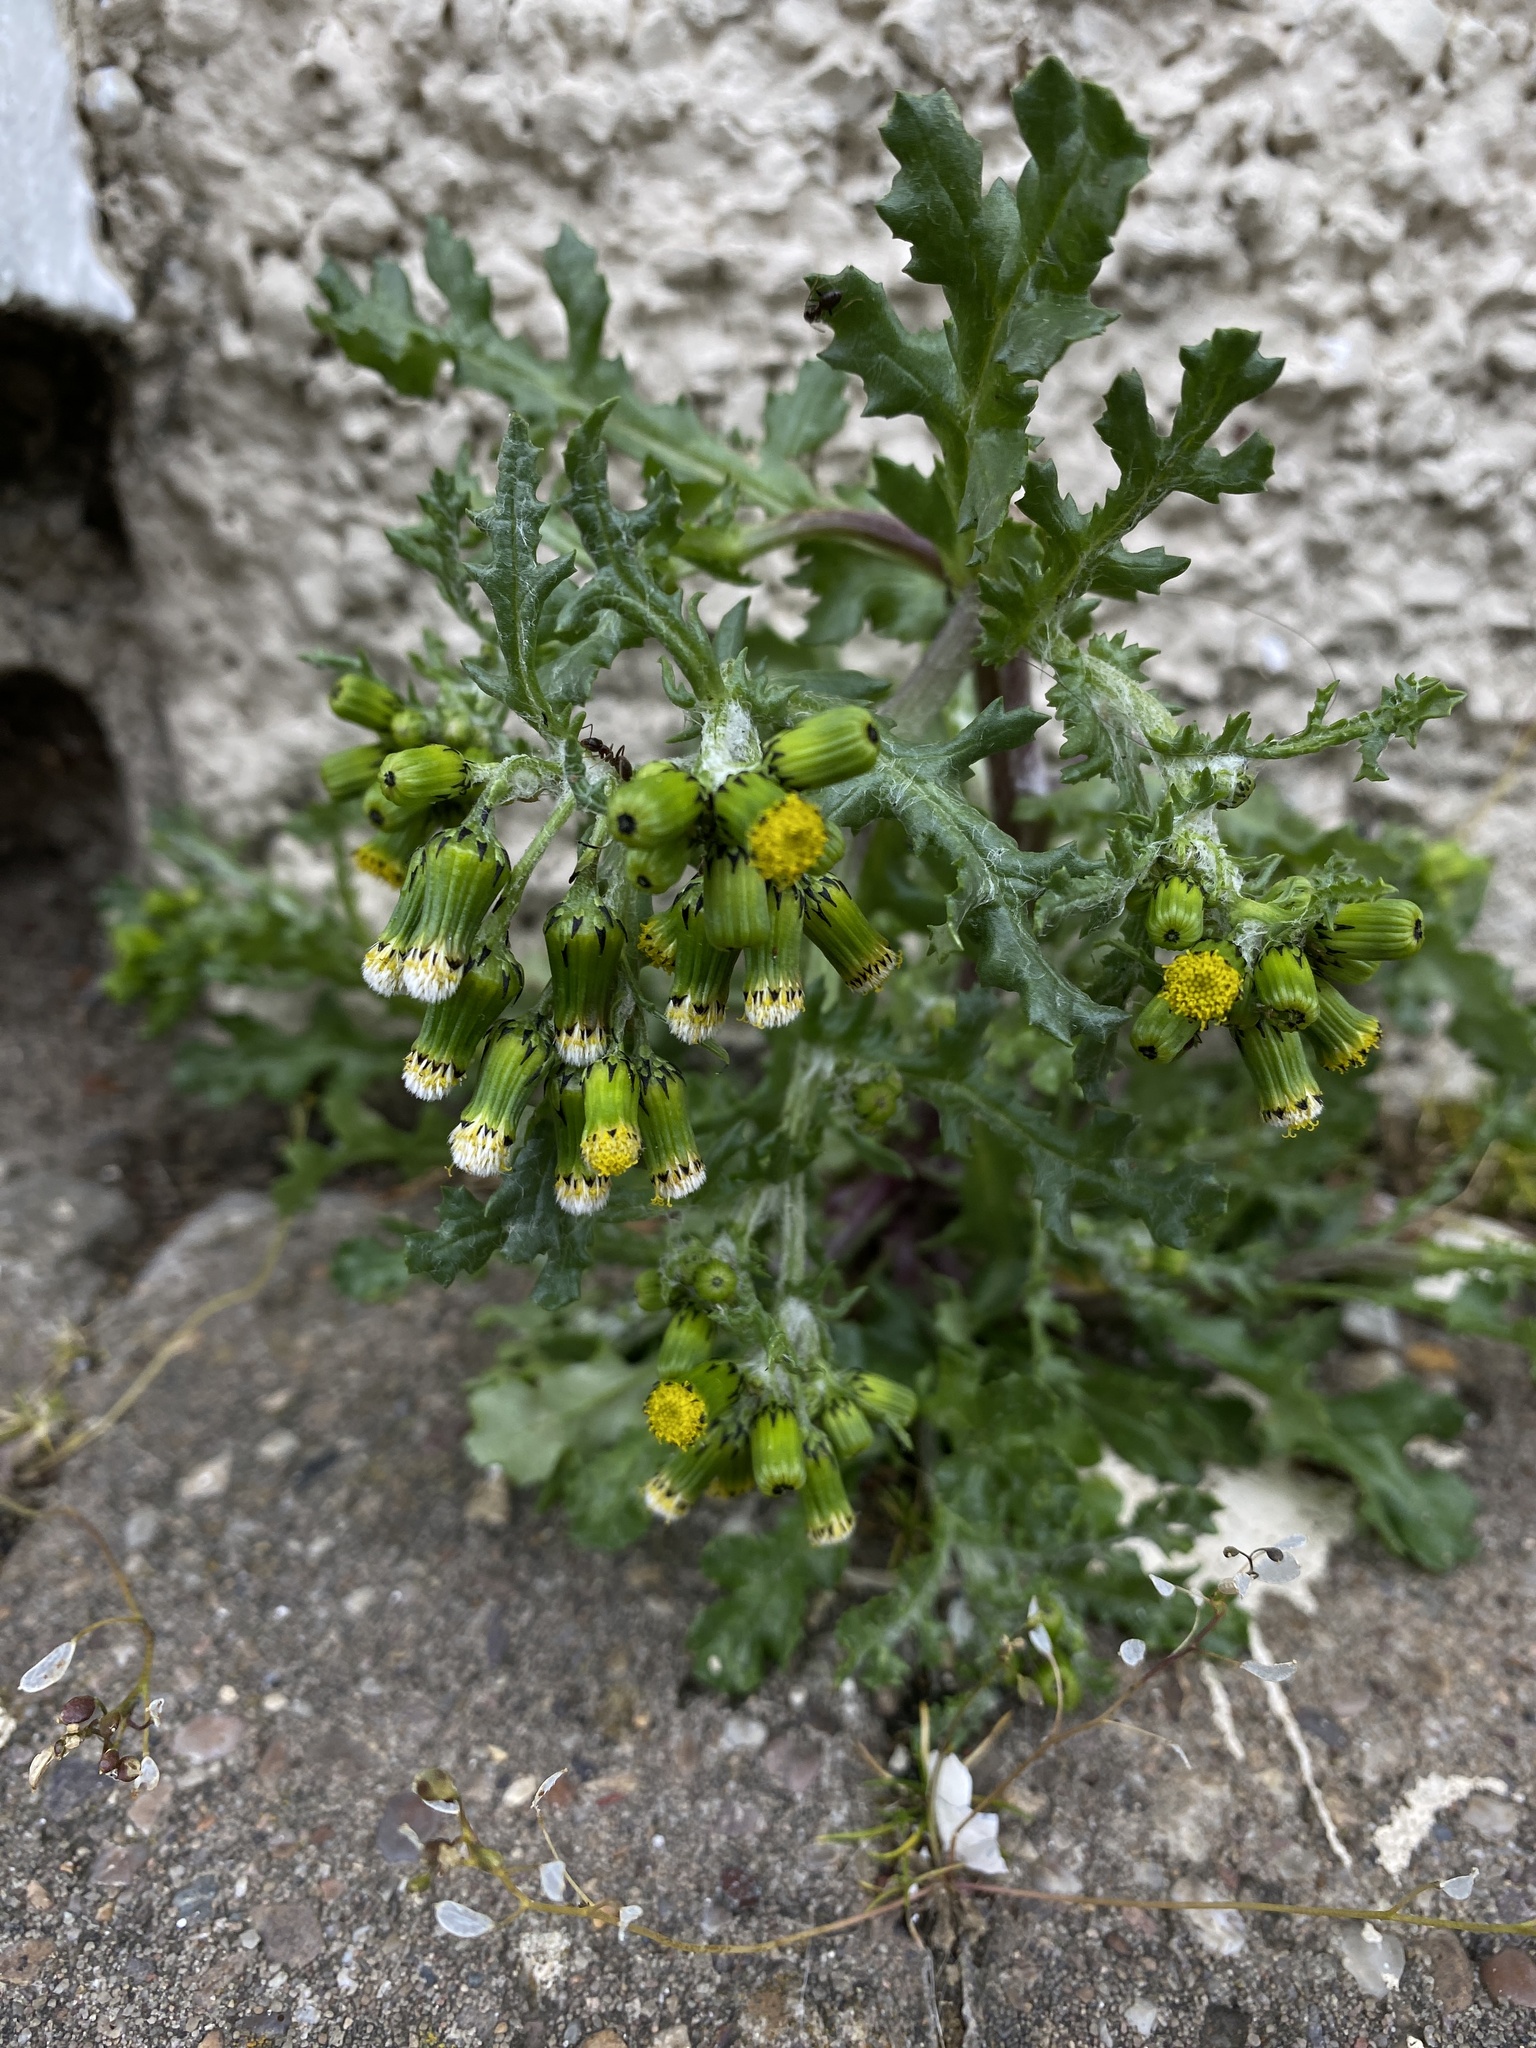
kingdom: Plantae
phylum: Tracheophyta
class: Magnoliopsida
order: Asterales
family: Asteraceae
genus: Senecio
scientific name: Senecio vulgaris
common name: Old-man-in-the-spring
